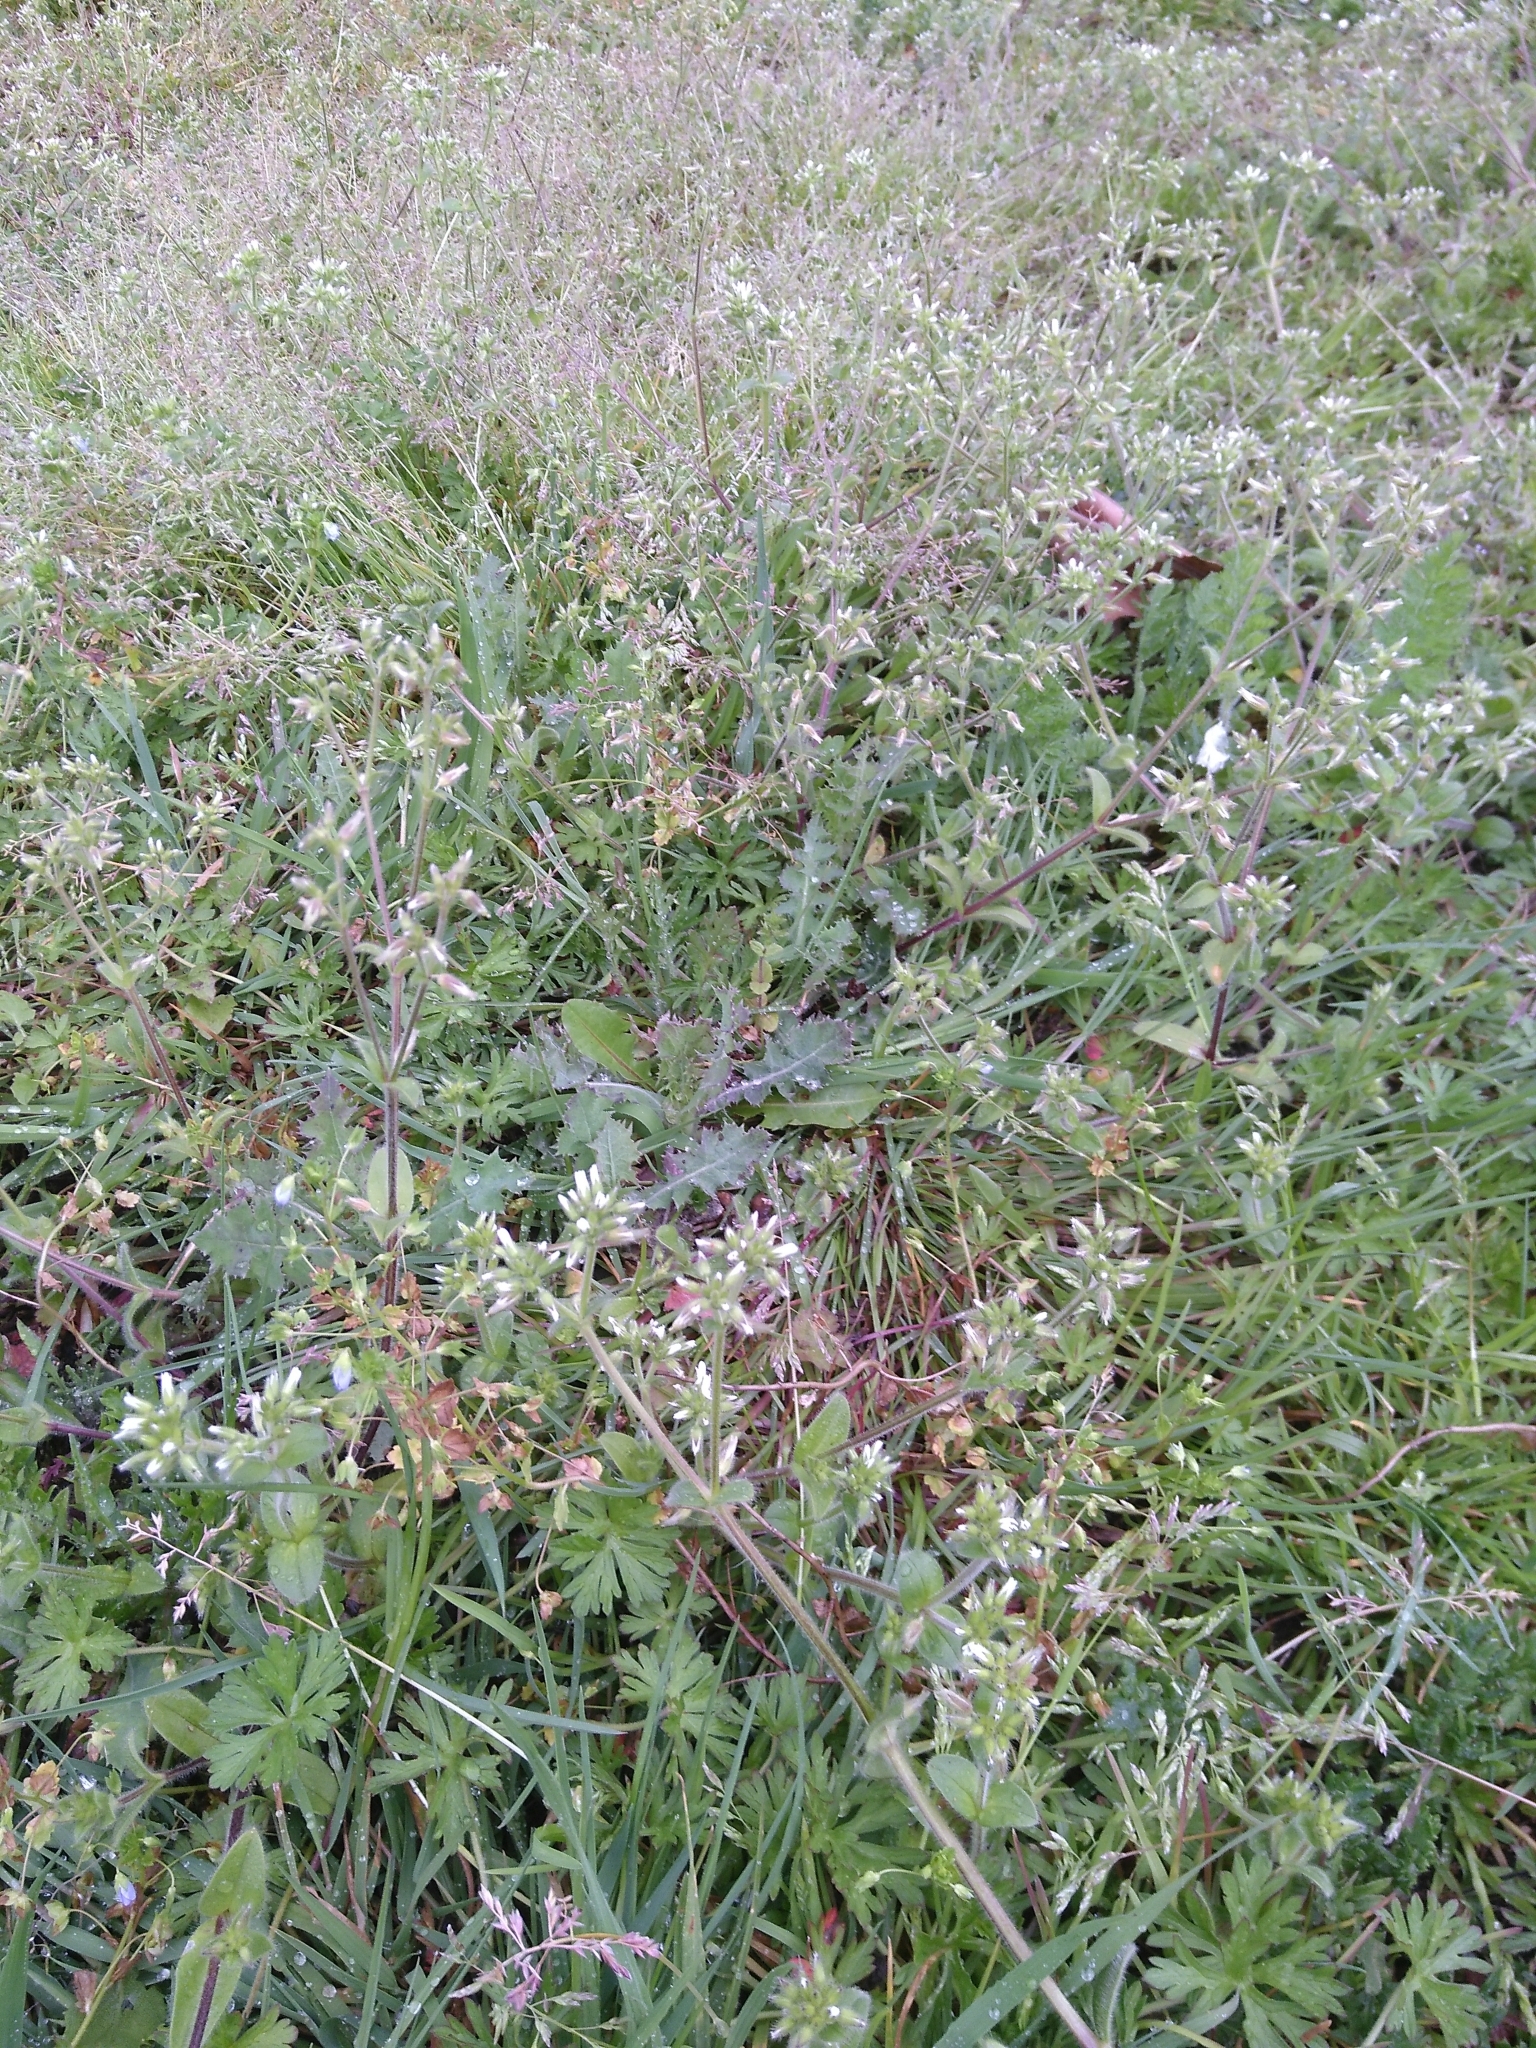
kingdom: Plantae
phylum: Tracheophyta
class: Magnoliopsida
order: Caryophyllales
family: Caryophyllaceae
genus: Cerastium
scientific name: Cerastium glomeratum
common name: Sticky chickweed
